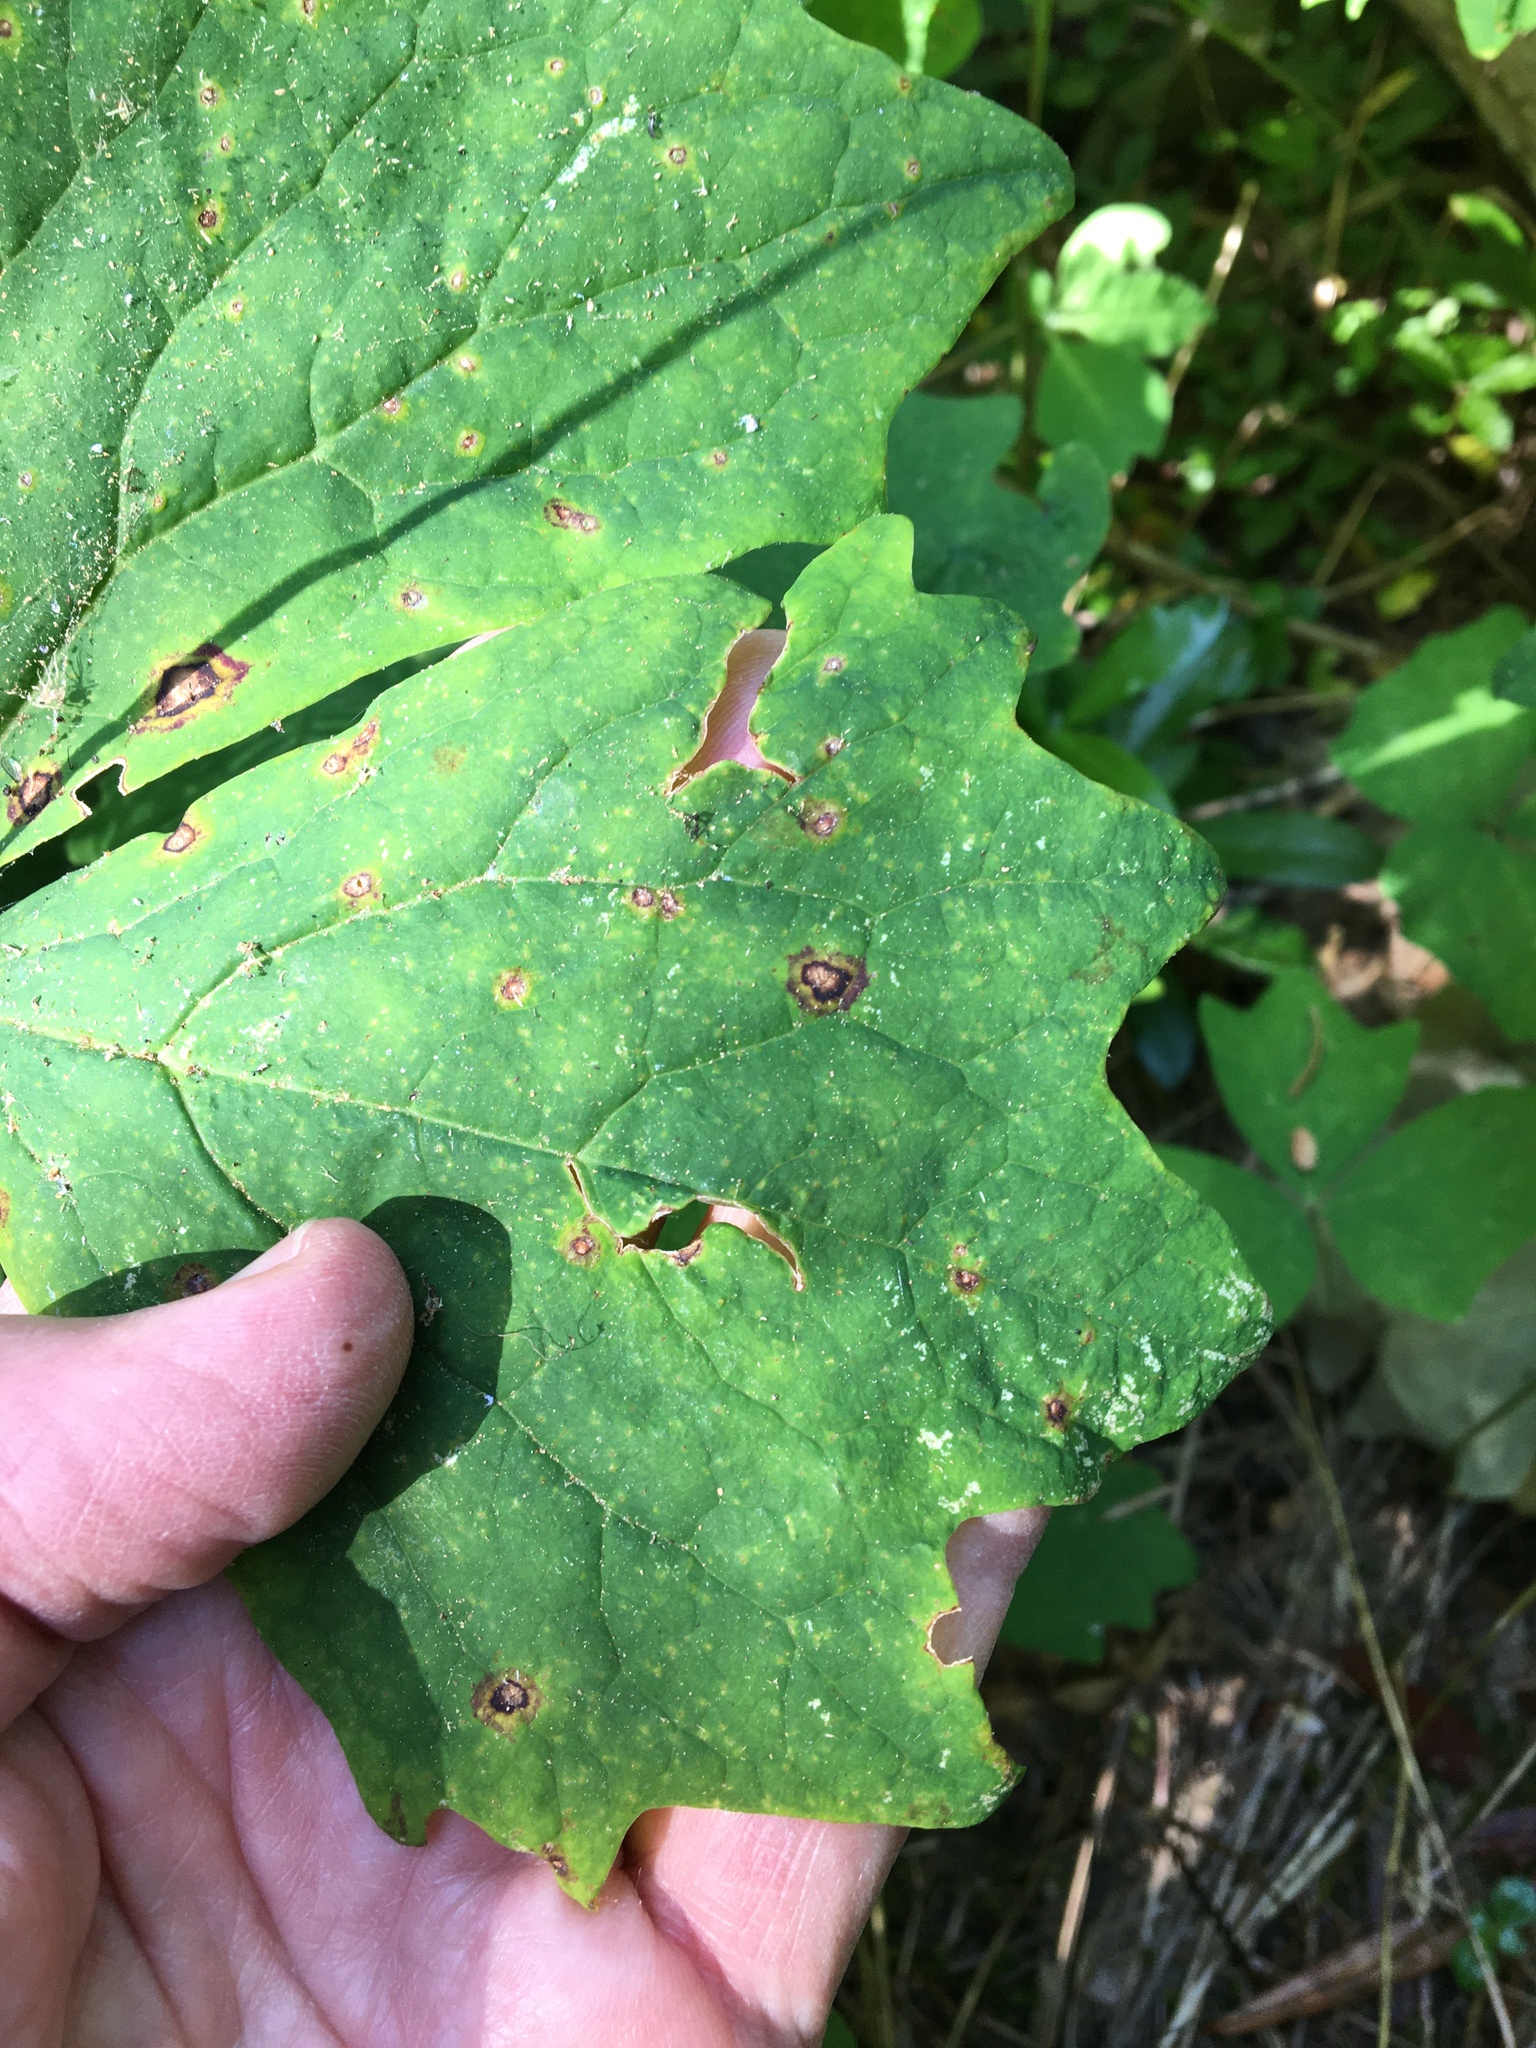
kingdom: Plantae
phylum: Tracheophyta
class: Magnoliopsida
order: Ranunculales
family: Berberidaceae
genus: Achlys
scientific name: Achlys triphylla
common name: Vanilla-leaf
